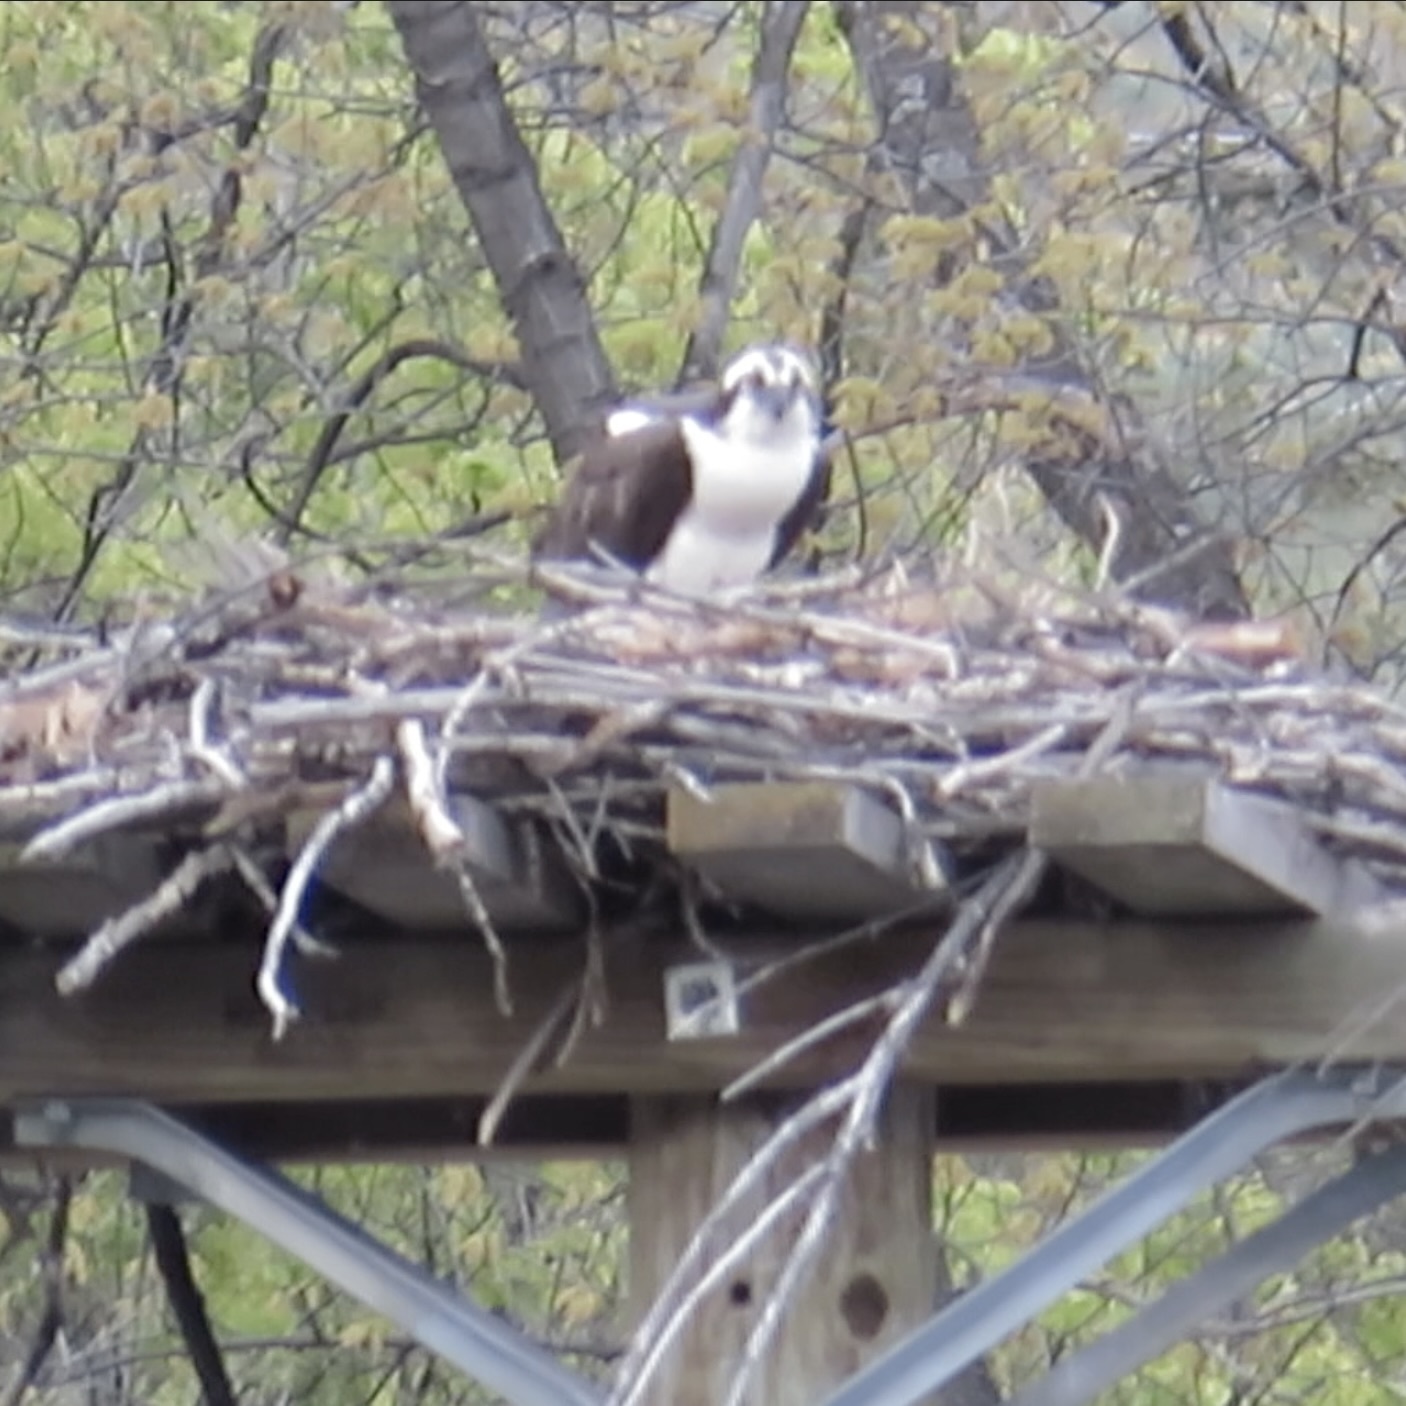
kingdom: Animalia
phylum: Chordata
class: Aves
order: Accipitriformes
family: Pandionidae
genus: Pandion
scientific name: Pandion haliaetus
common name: Osprey
